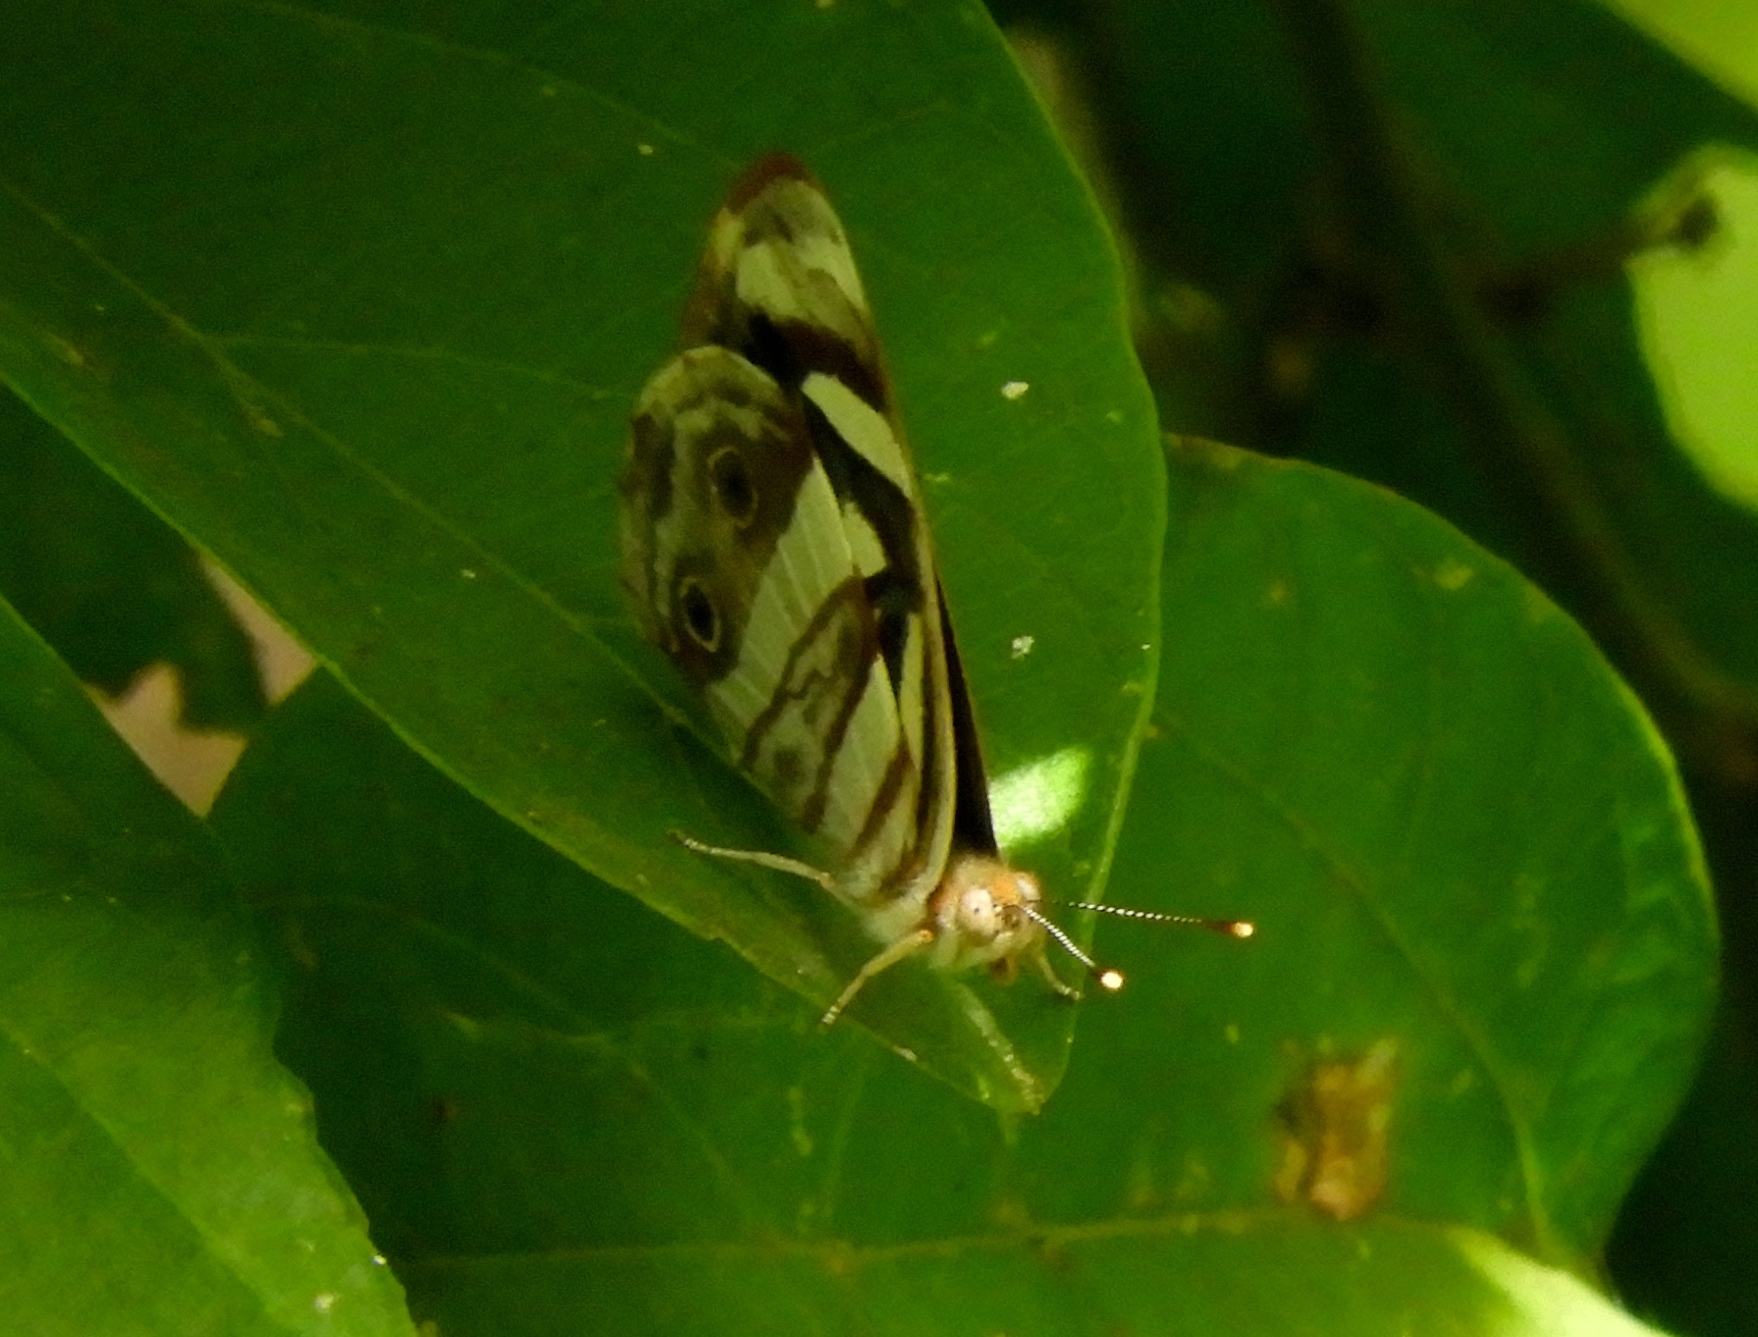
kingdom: Animalia
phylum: Arthropoda
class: Insecta
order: Lepidoptera
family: Nymphalidae
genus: Dynamine
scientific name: Dynamine mylitta
